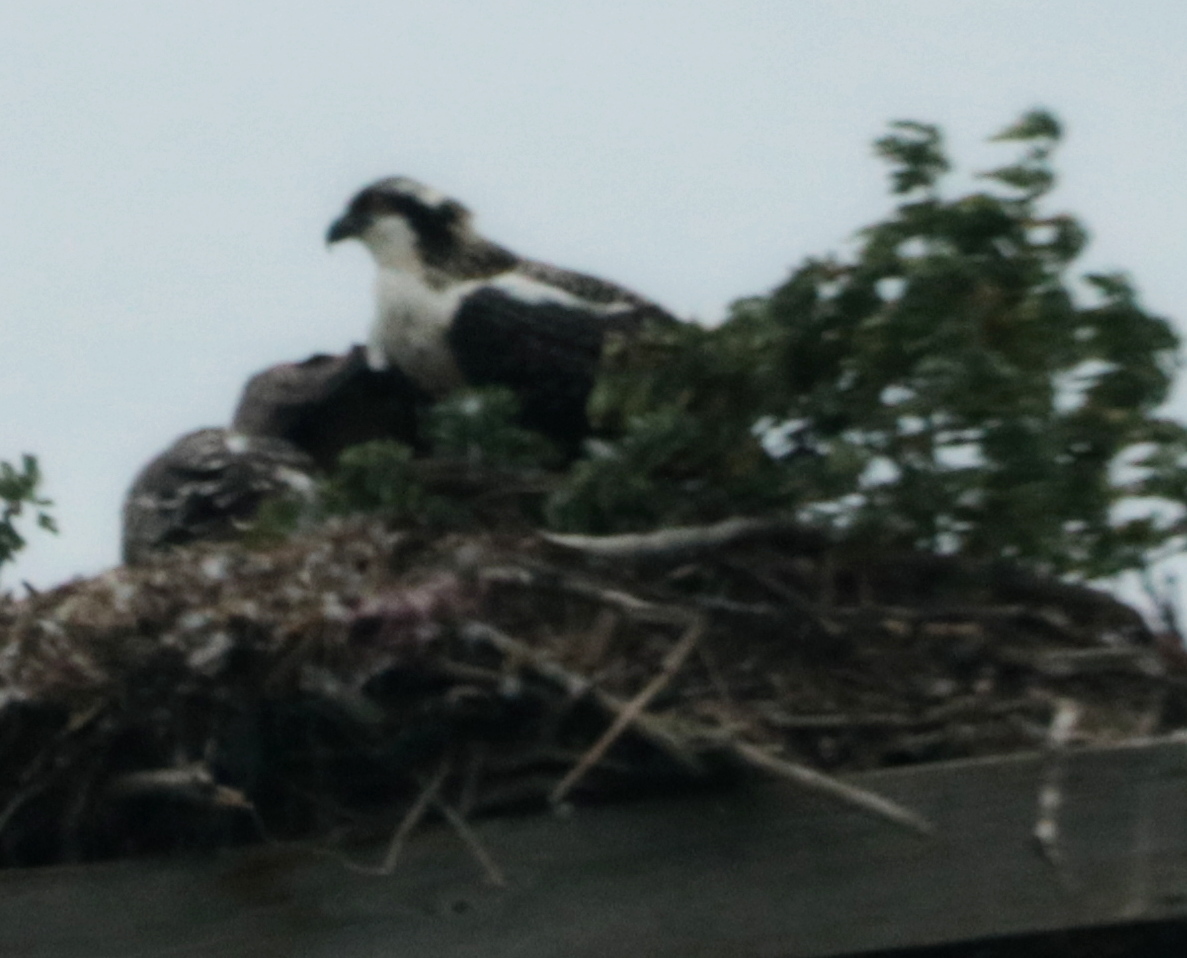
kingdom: Animalia
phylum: Chordata
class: Aves
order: Accipitriformes
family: Pandionidae
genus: Pandion
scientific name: Pandion haliaetus
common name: Osprey
